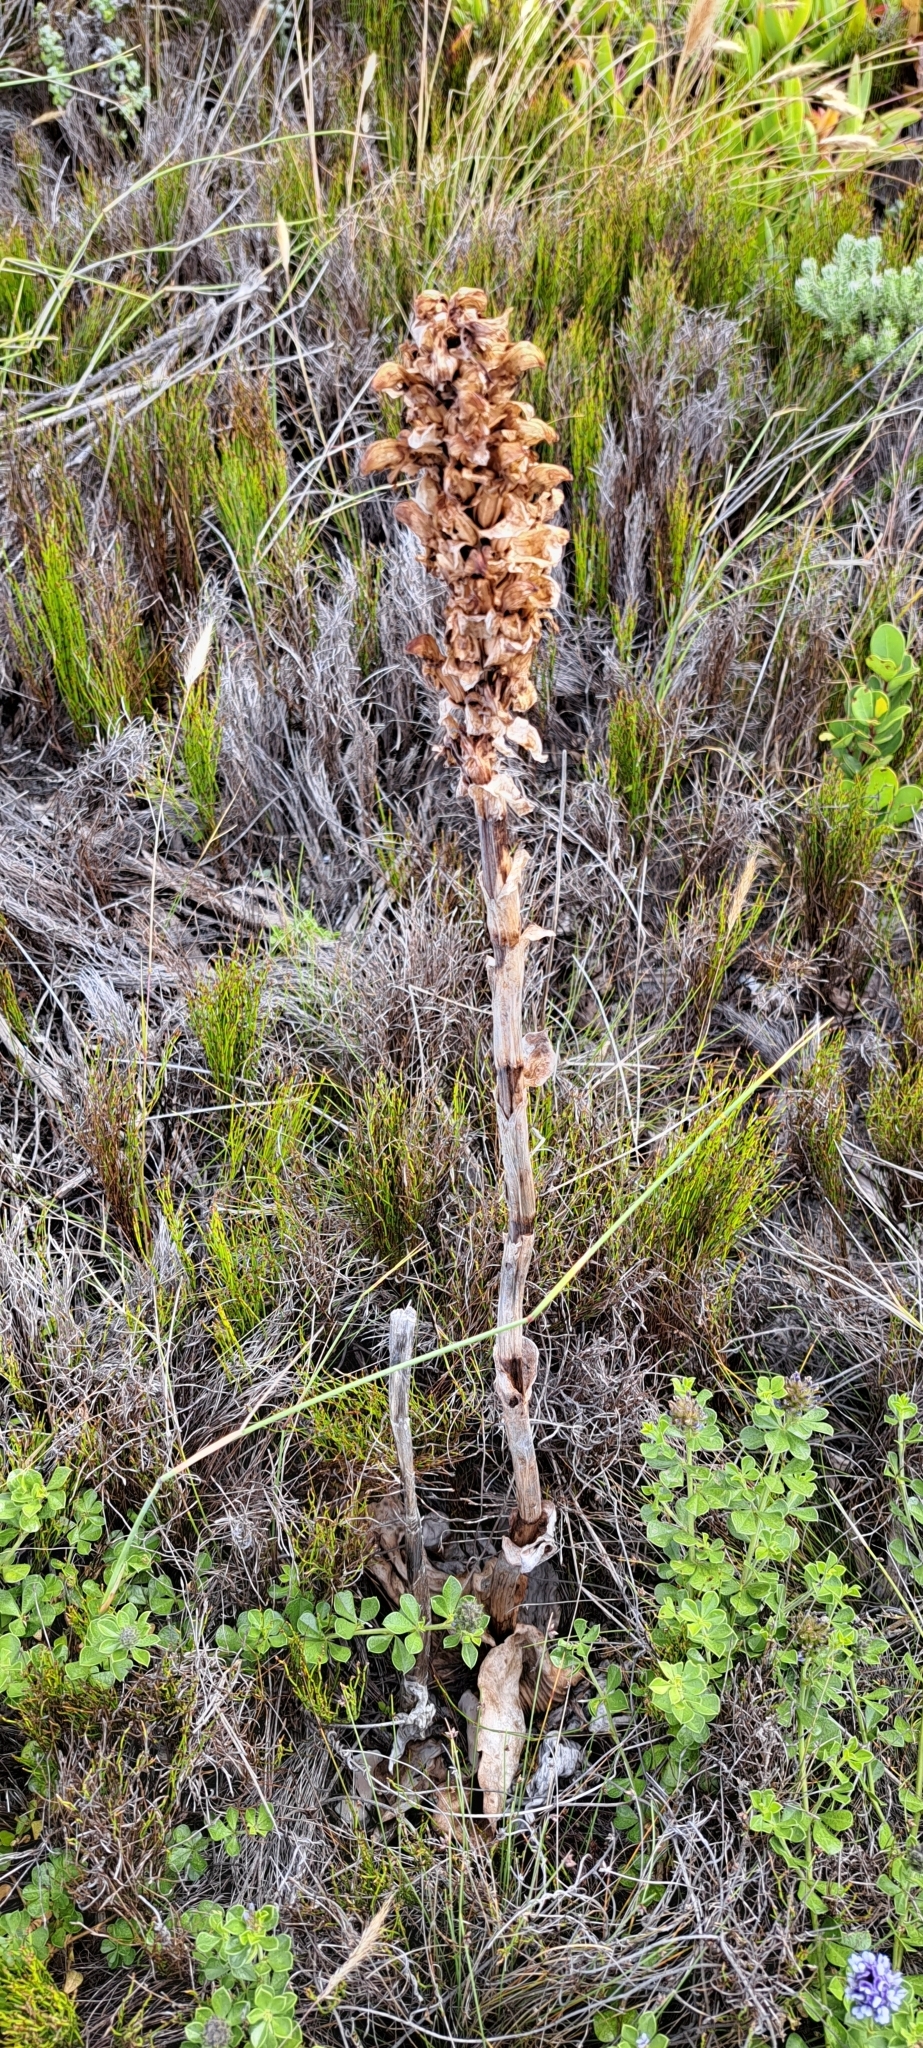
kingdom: Plantae
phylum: Tracheophyta
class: Liliopsida
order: Asparagales
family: Orchidaceae
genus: Satyrium
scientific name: Satyrium carneum
